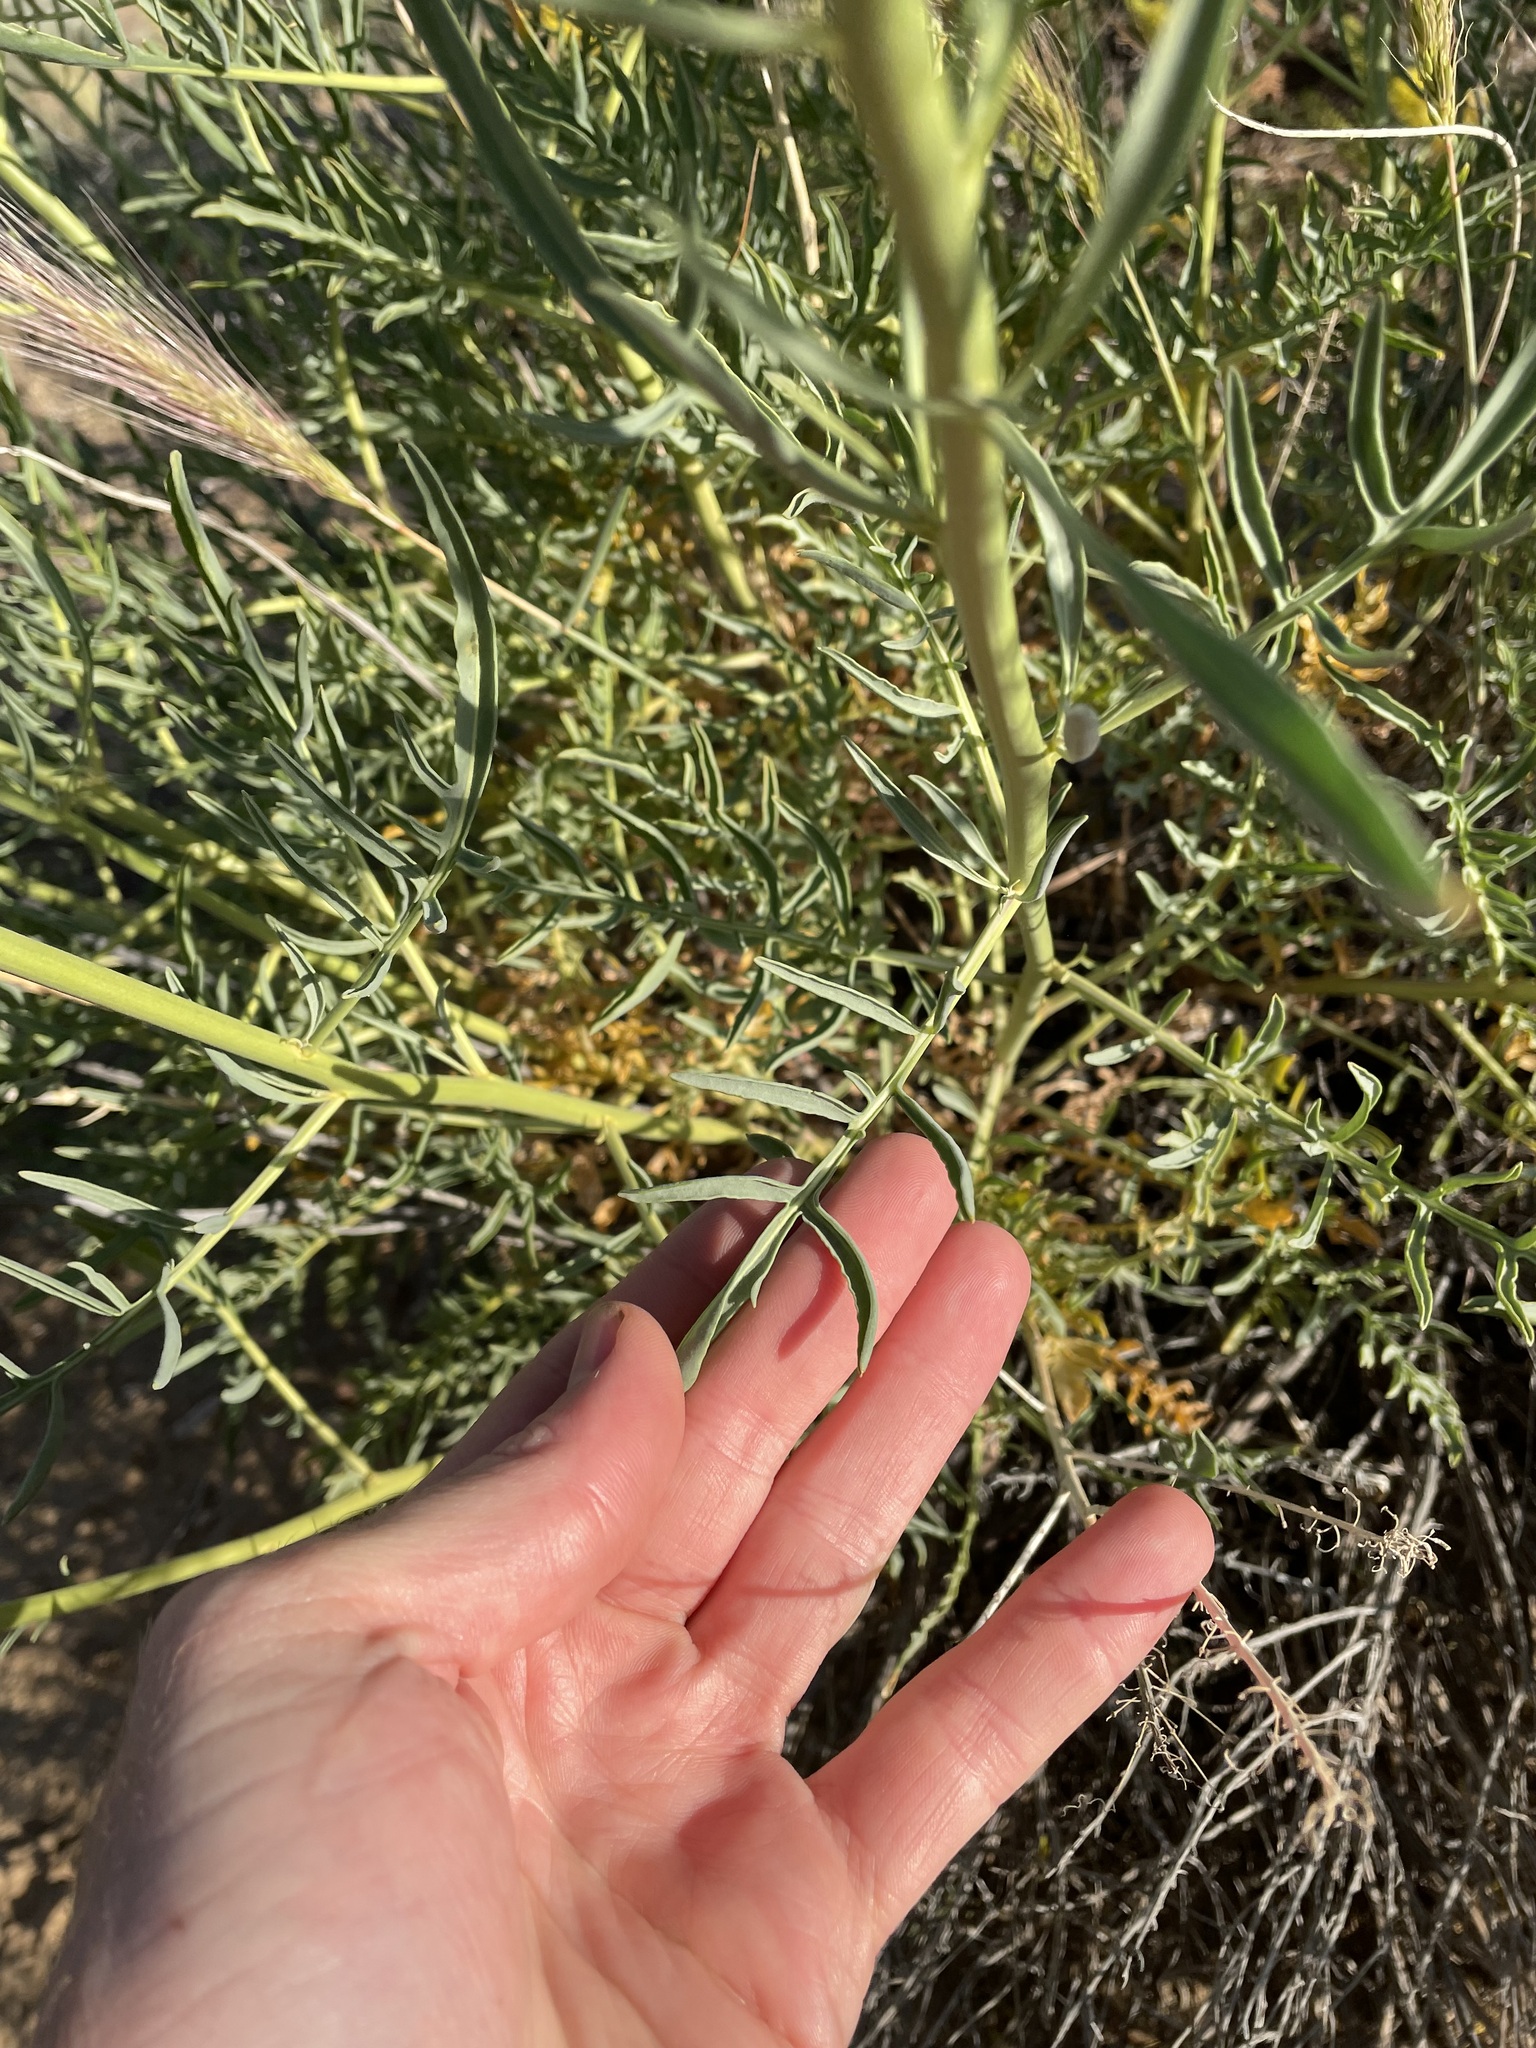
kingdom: Plantae
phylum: Tracheophyta
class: Magnoliopsida
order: Brassicales
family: Brassicaceae
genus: Stanleya
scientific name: Stanleya pinnata
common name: Prince's-plume
